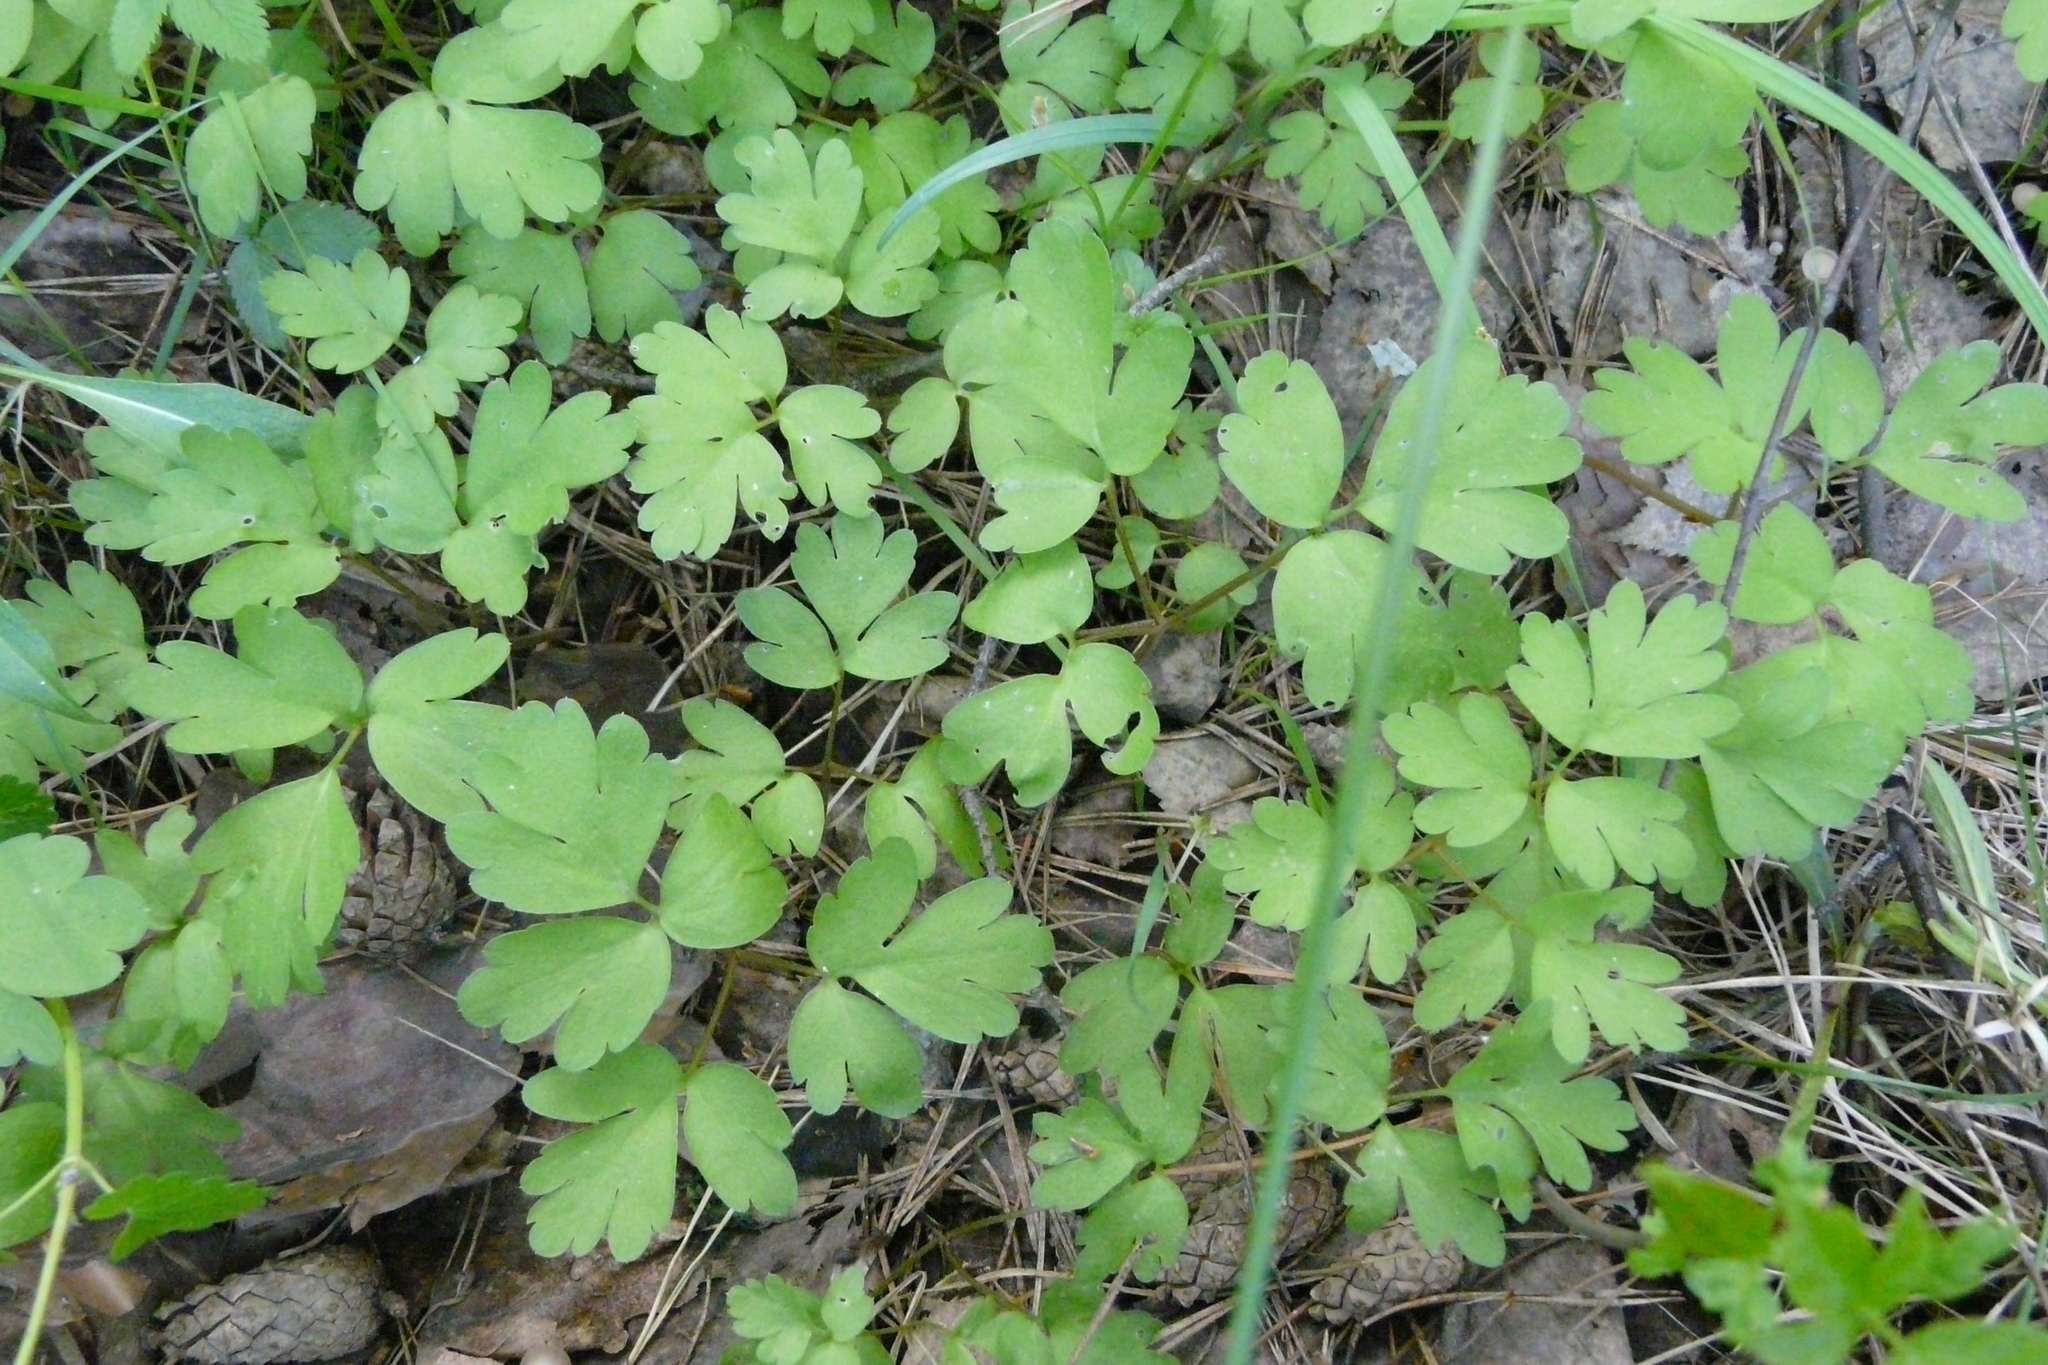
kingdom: Plantae
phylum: Tracheophyta
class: Magnoliopsida
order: Dipsacales
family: Viburnaceae
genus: Adoxa
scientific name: Adoxa moschatellina
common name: Moschatel
